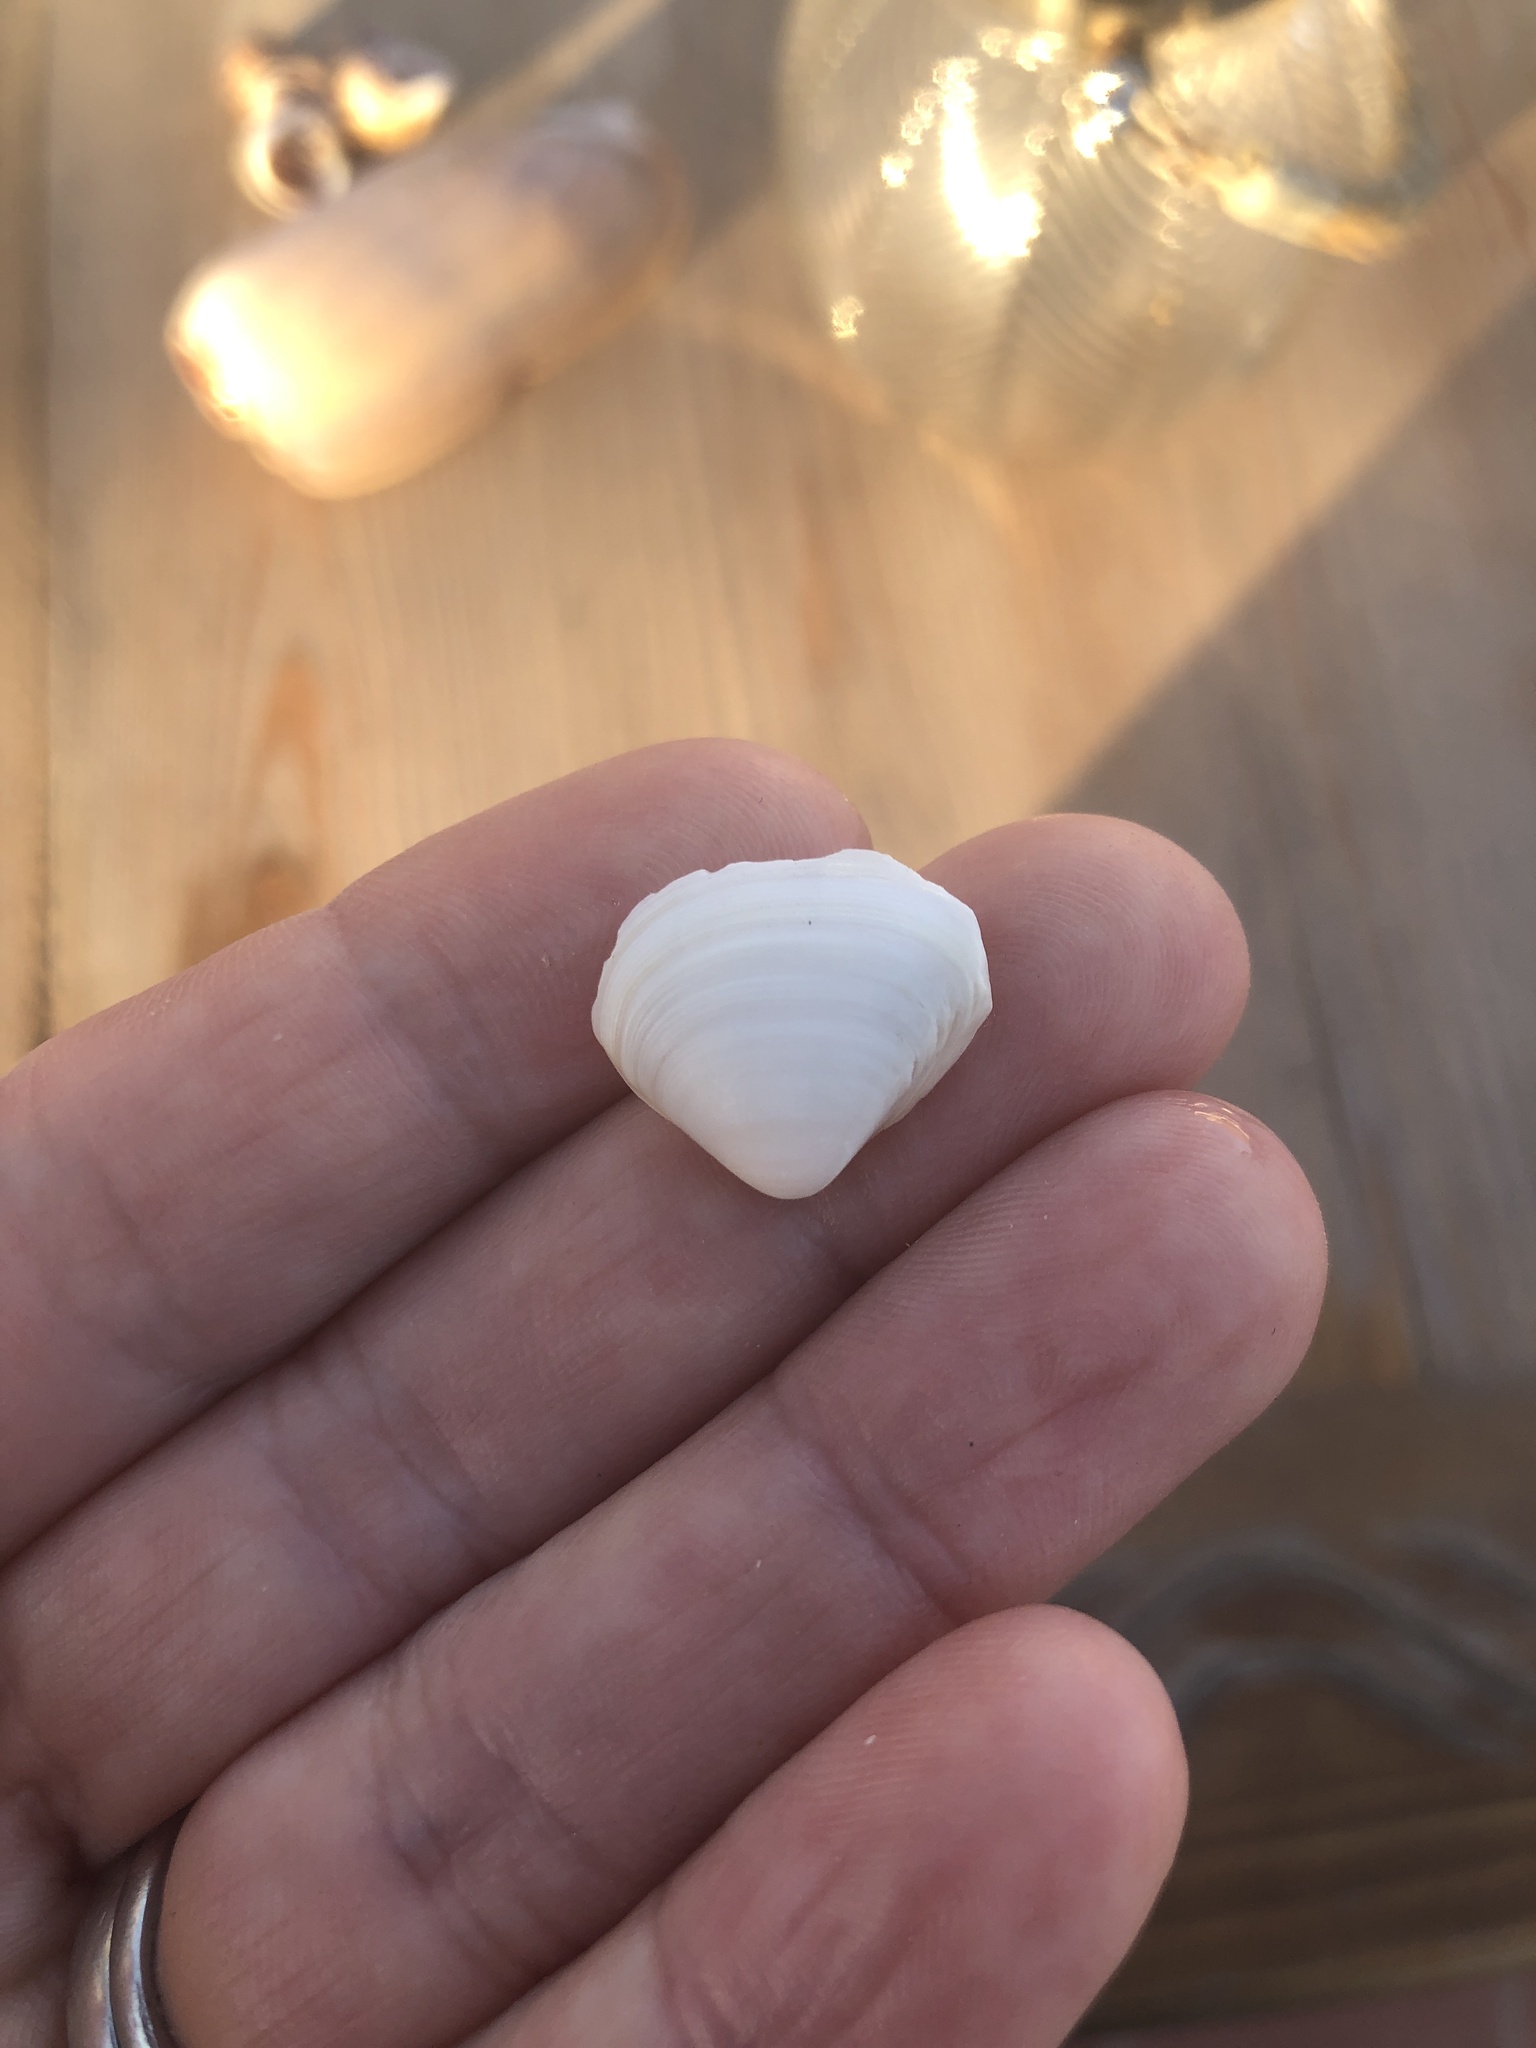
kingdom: Animalia
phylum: Mollusca
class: Bivalvia
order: Venerida
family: Mactridae
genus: Spisula
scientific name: Spisula subtruncata
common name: Cut trough shell
